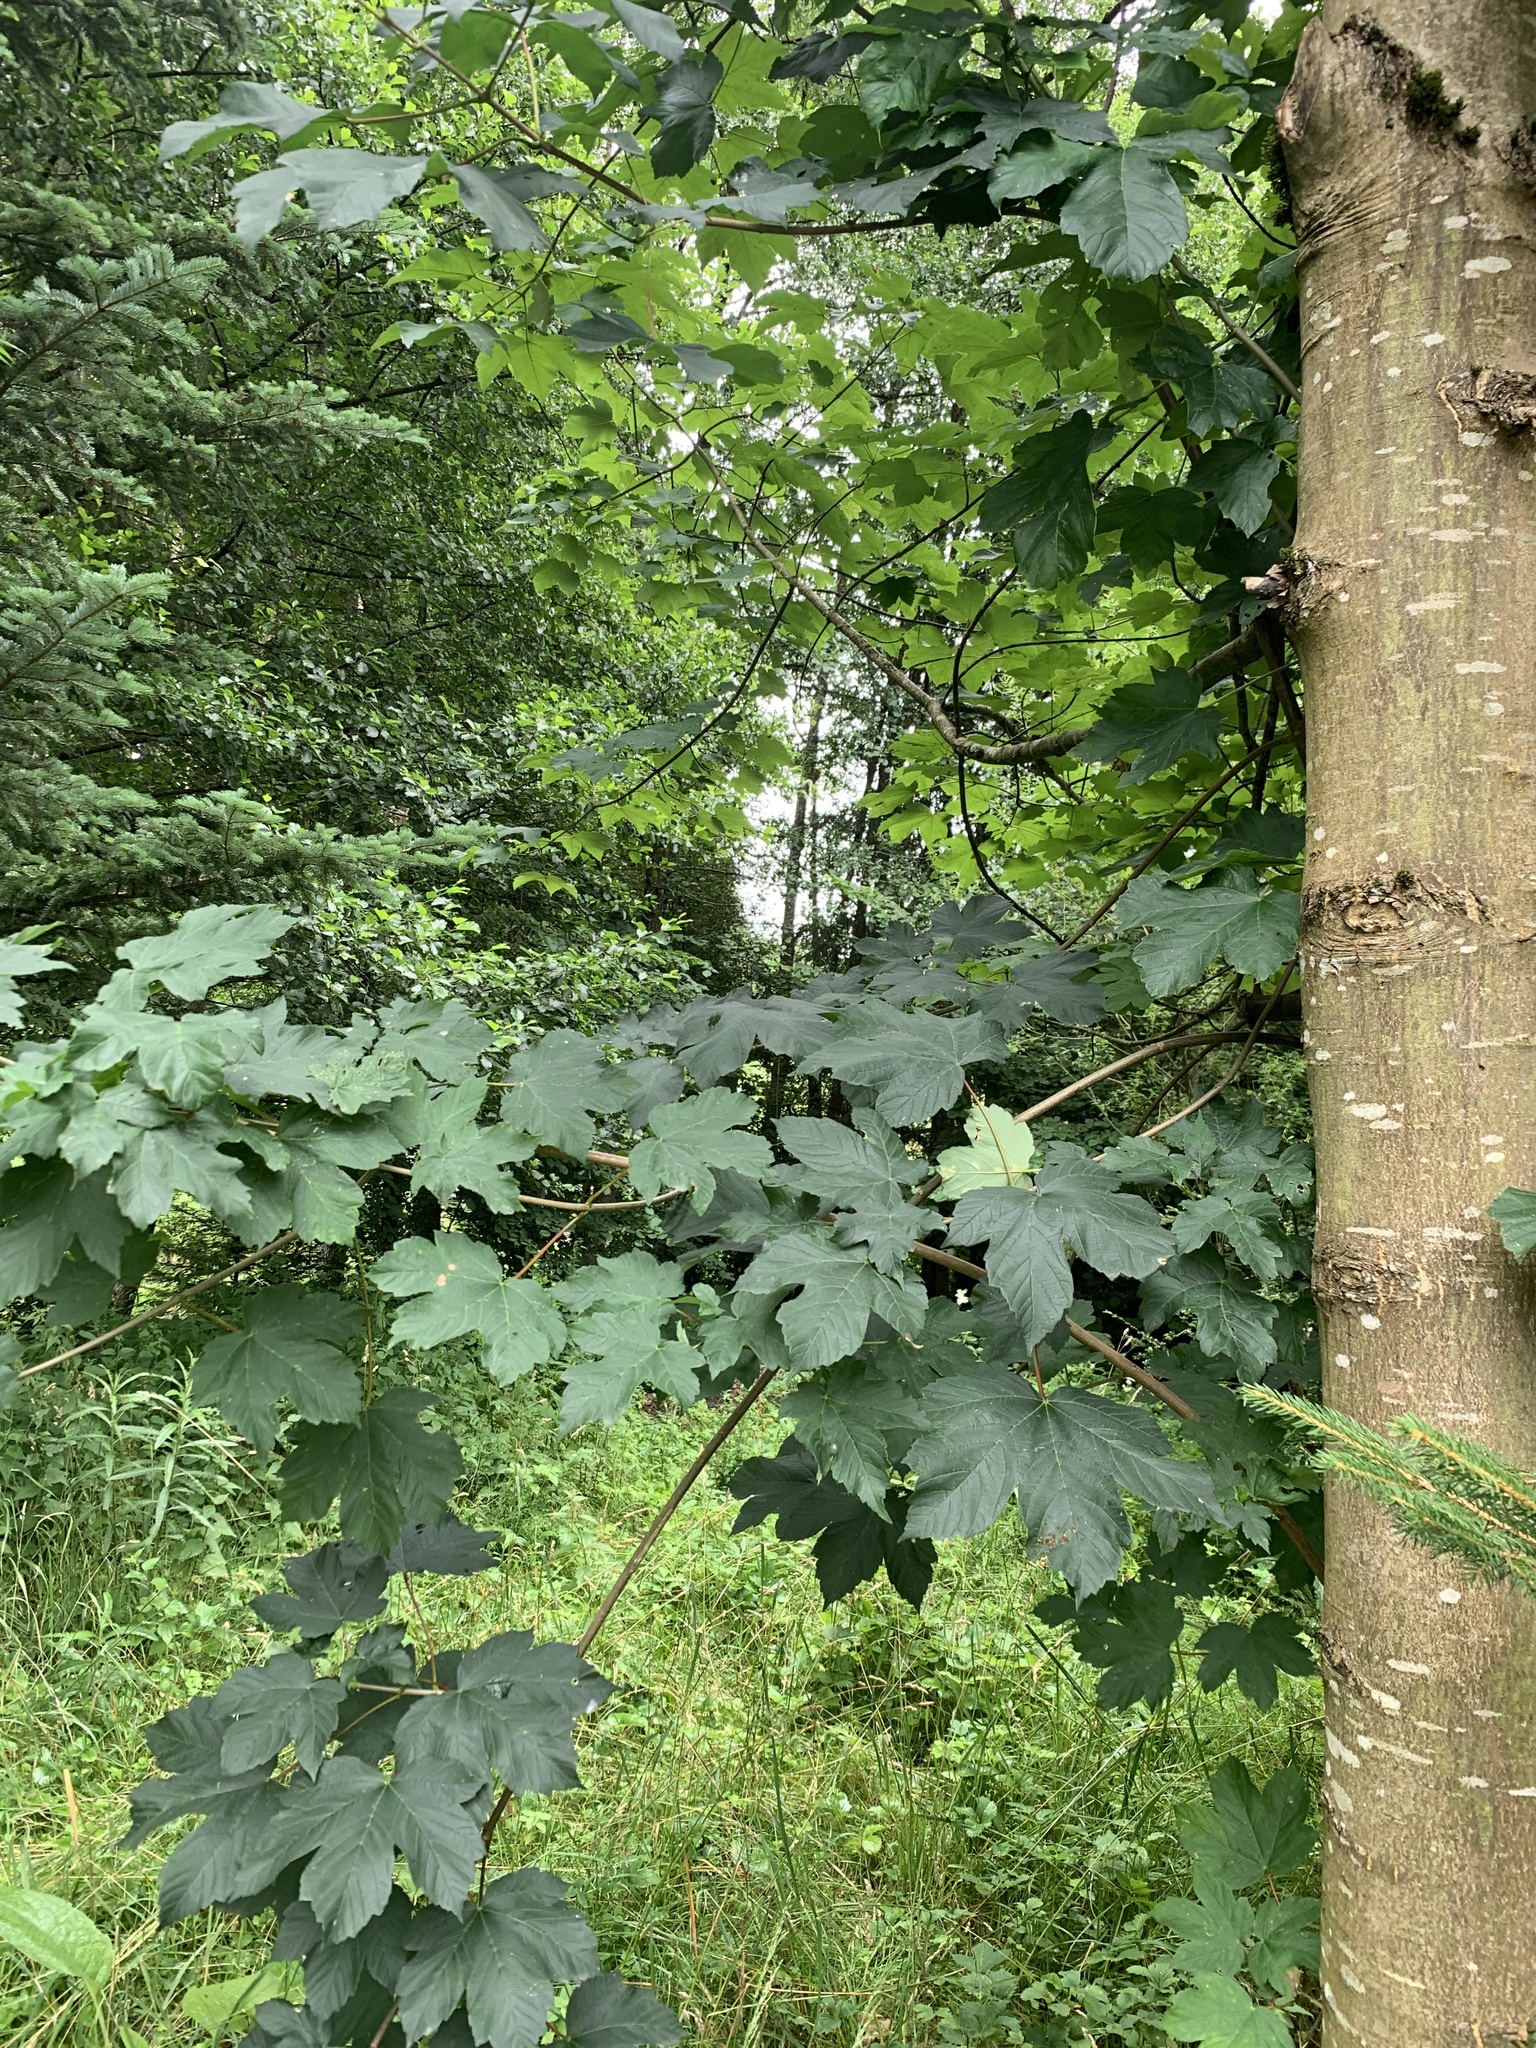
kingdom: Plantae
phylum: Tracheophyta
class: Magnoliopsida
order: Sapindales
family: Sapindaceae
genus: Acer
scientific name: Acer pseudoplatanus
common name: Sycamore
